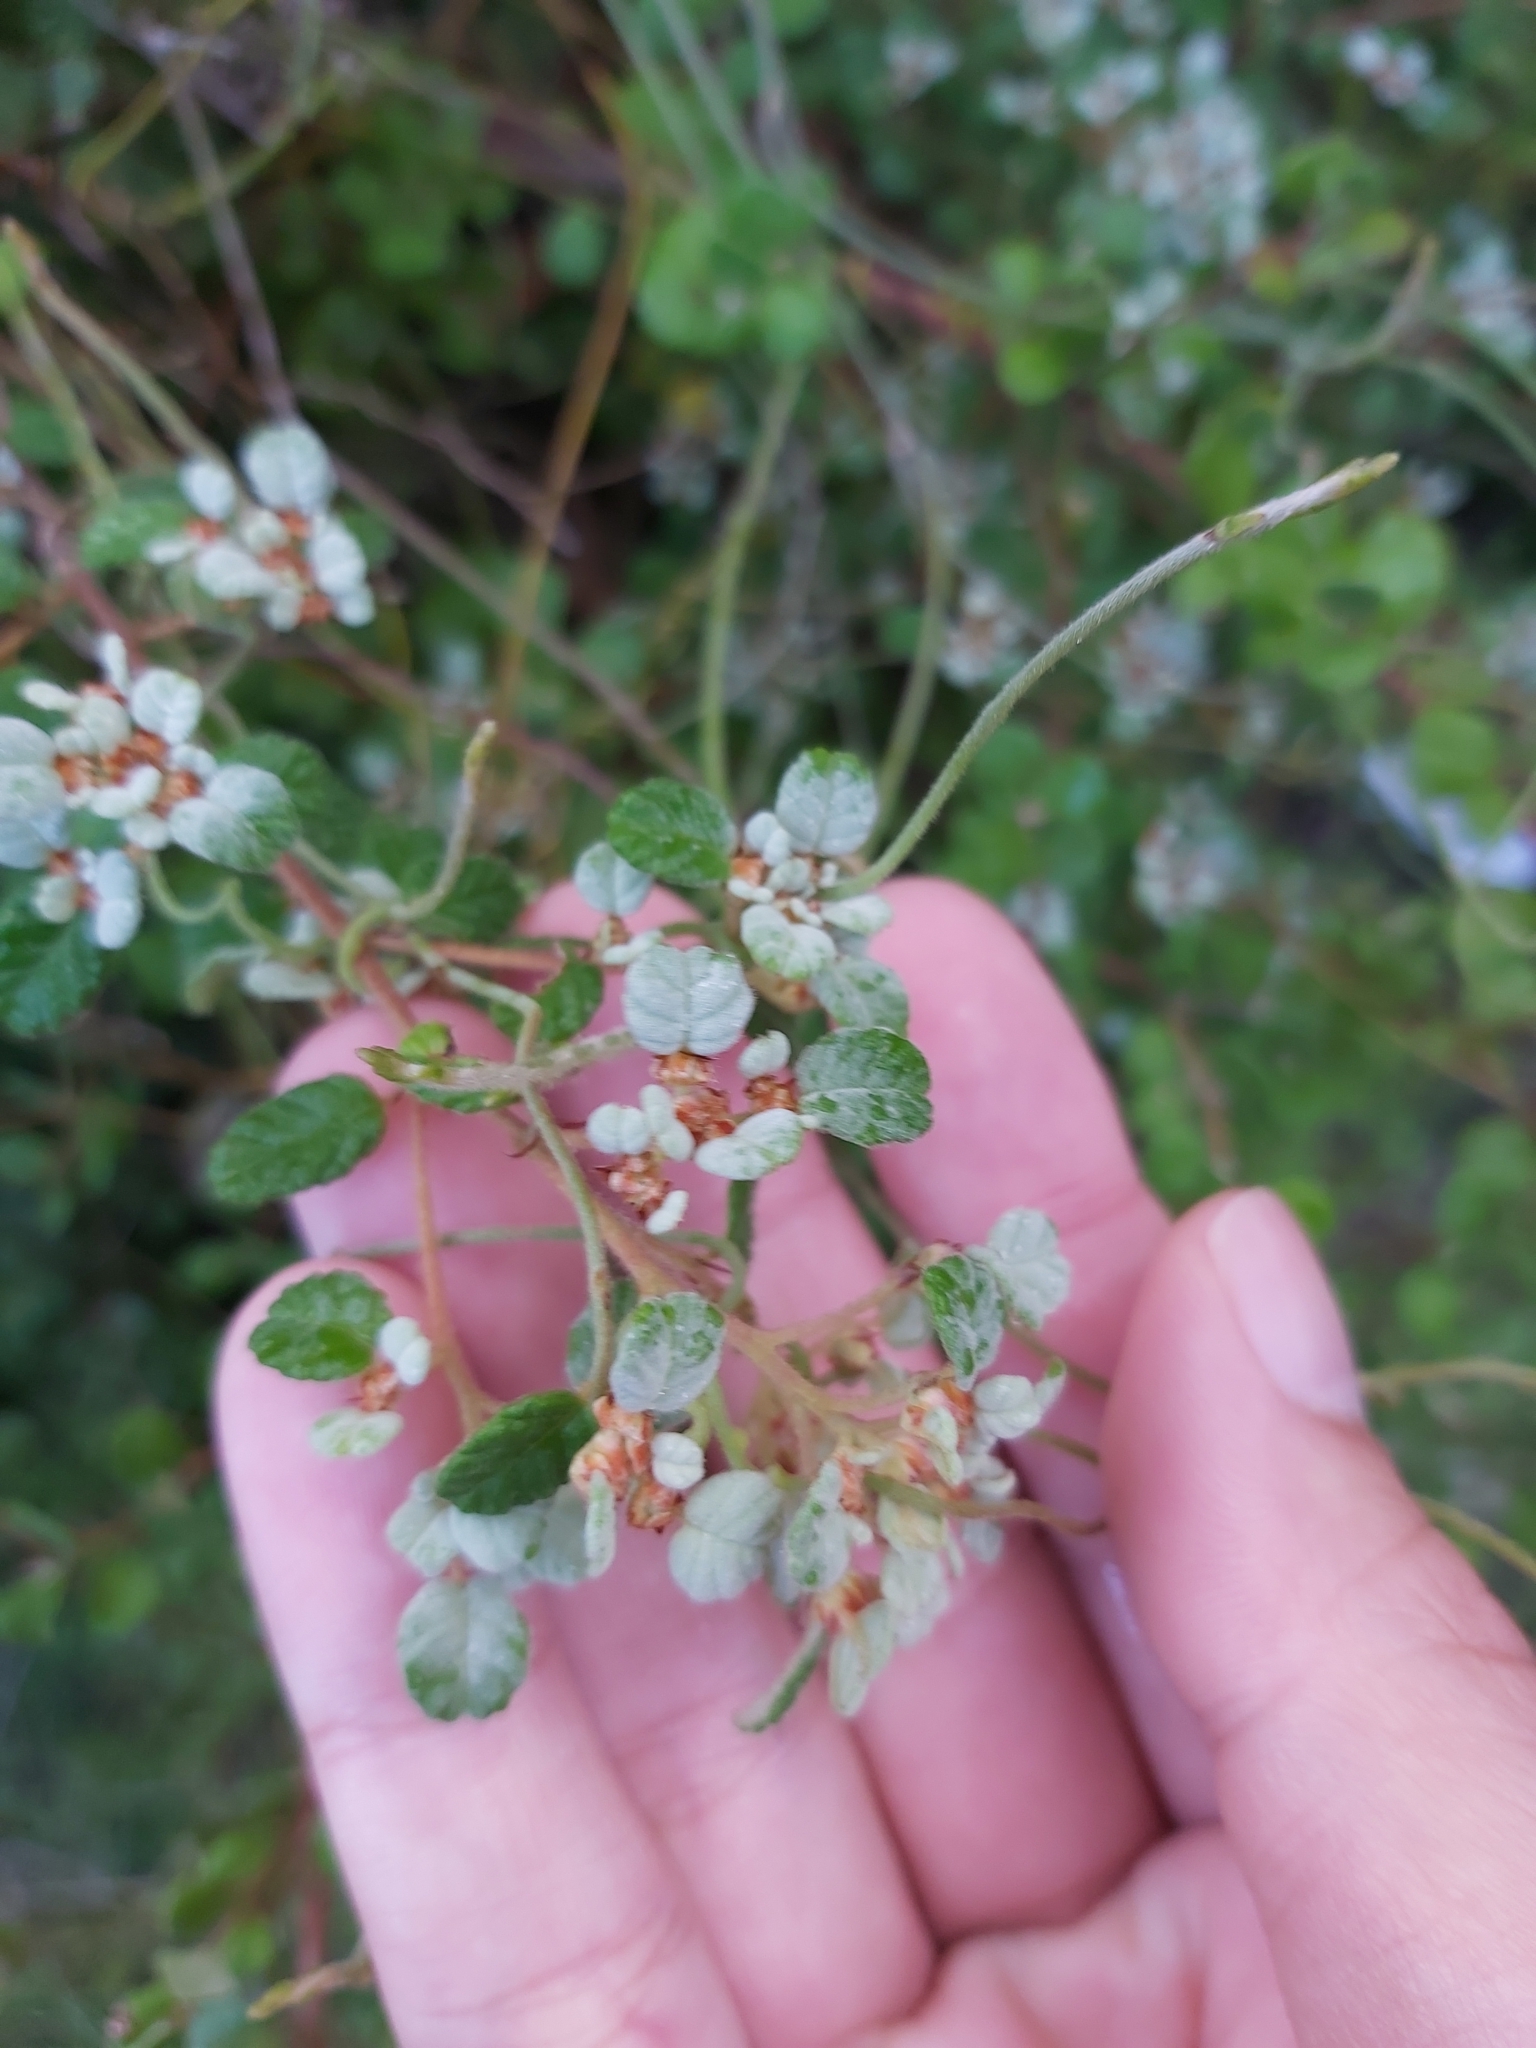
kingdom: Plantae
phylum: Tracheophyta
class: Magnoliopsida
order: Rosales
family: Rhamnaceae
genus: Spyridium
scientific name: Spyridium parvifolium
